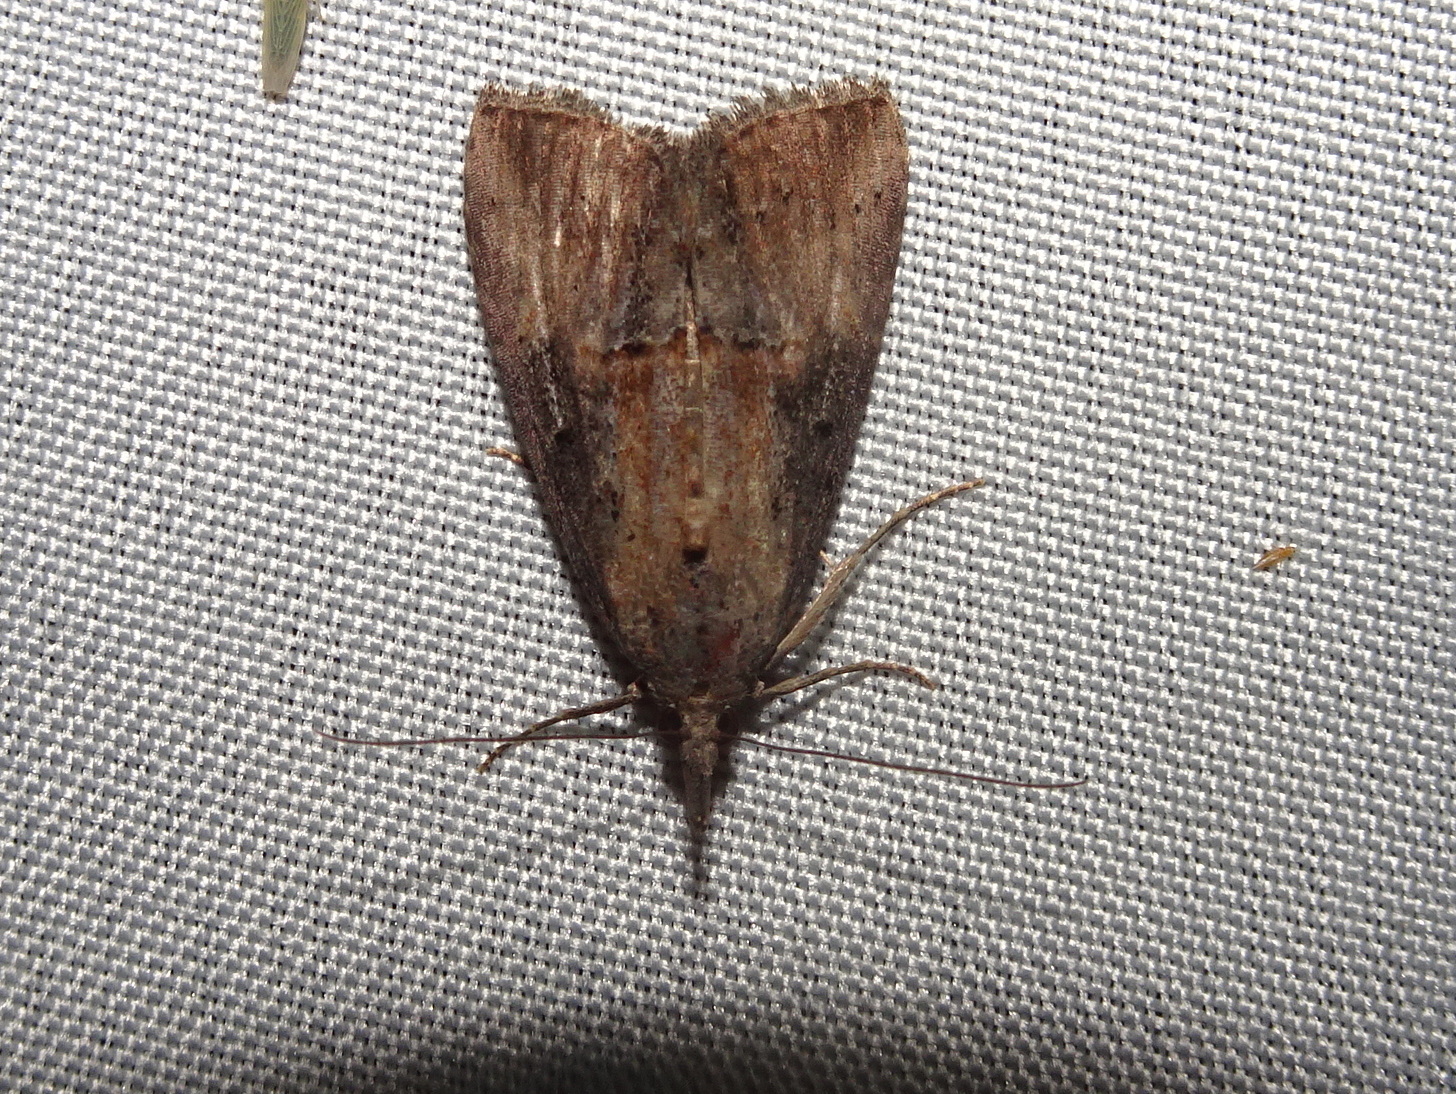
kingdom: Animalia
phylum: Arthropoda
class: Insecta
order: Lepidoptera
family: Erebidae
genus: Hypena
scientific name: Hypena scabra
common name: Green cloverworm
